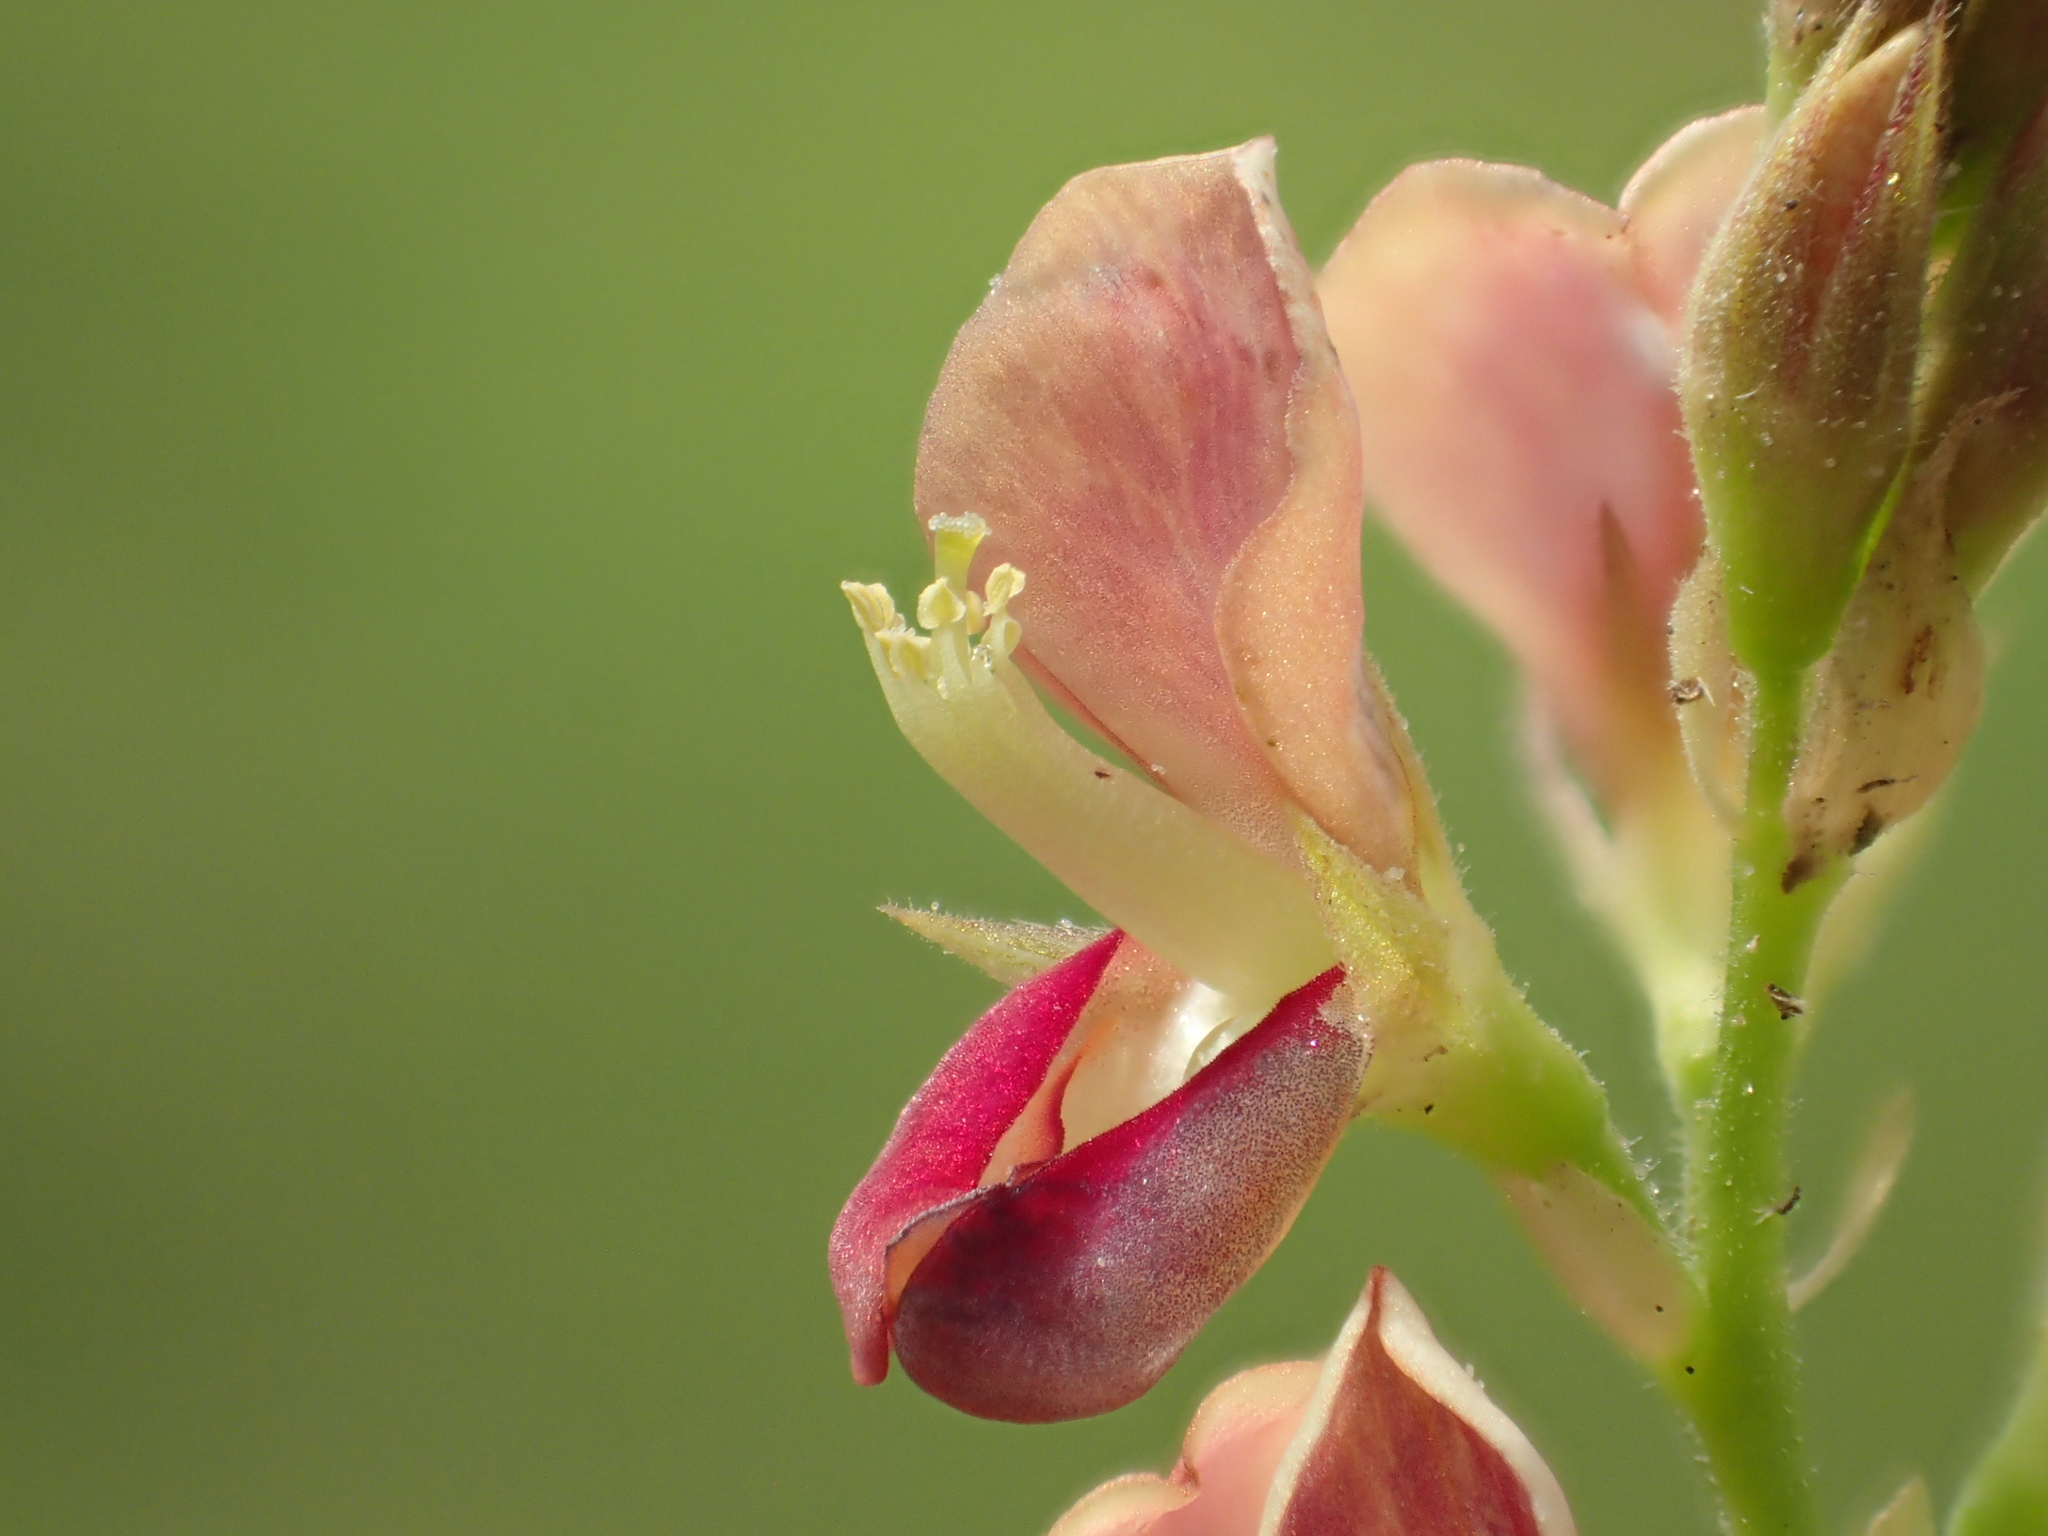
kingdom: Plantae
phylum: Tracheophyta
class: Magnoliopsida
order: Fabales
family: Fabaceae
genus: Alysicarpus
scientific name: Alysicarpus vaginalis
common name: White moneywort
